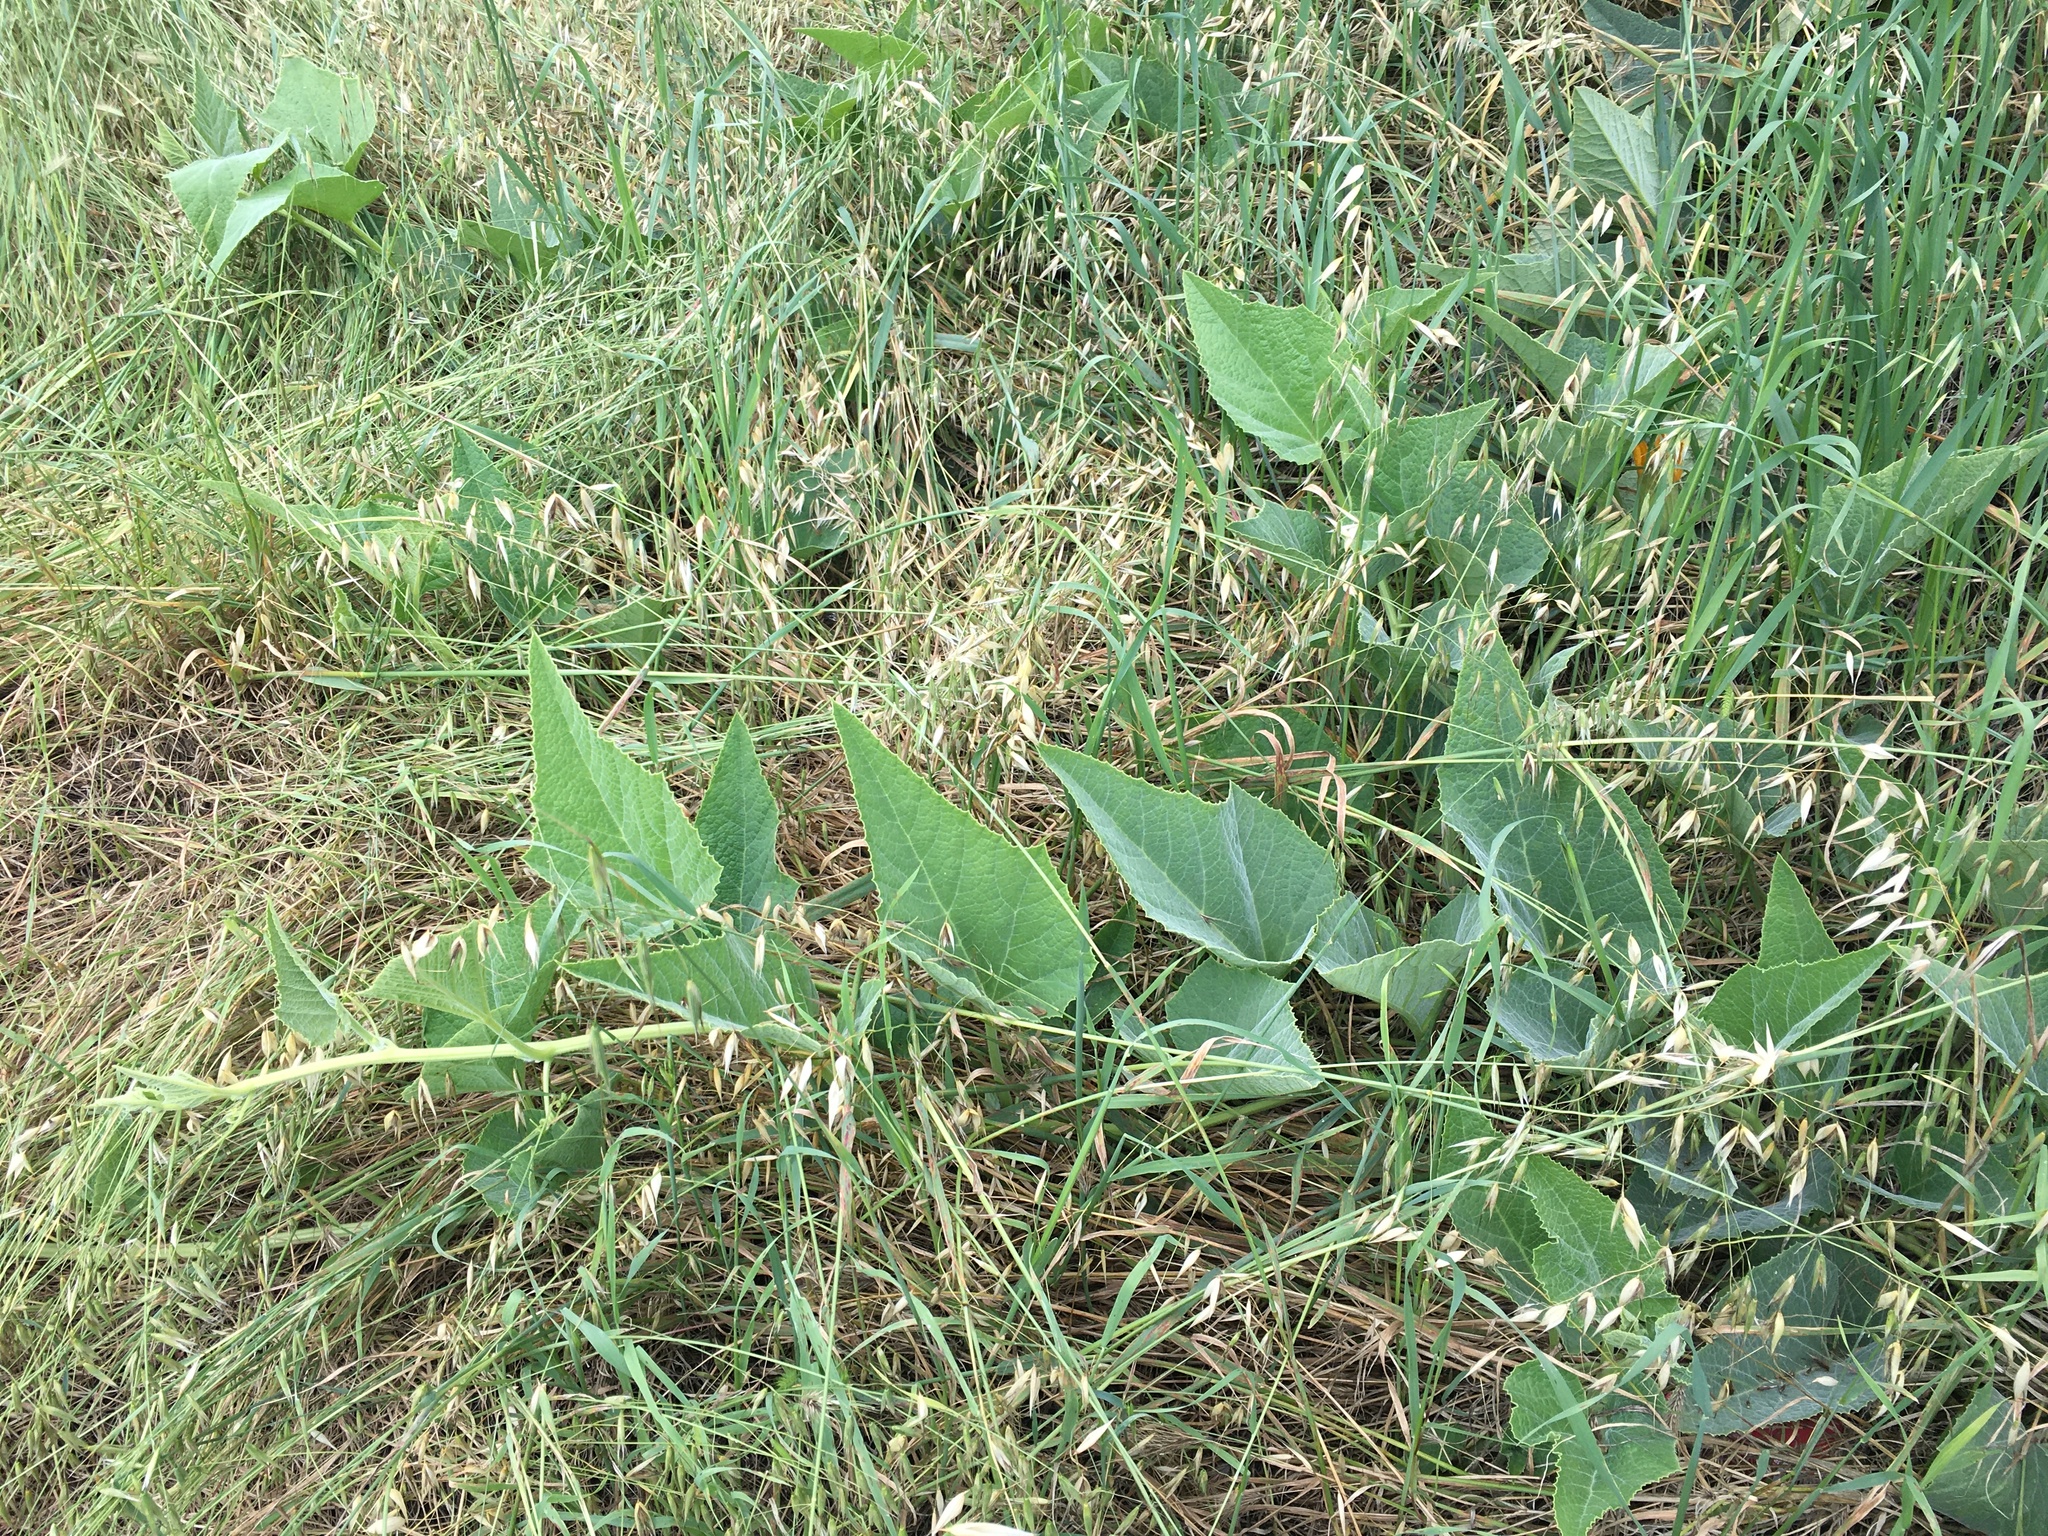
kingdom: Plantae
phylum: Tracheophyta
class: Magnoliopsida
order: Cucurbitales
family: Cucurbitaceae
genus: Cucurbita
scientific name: Cucurbita foetidissima
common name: Buffalo gourd
